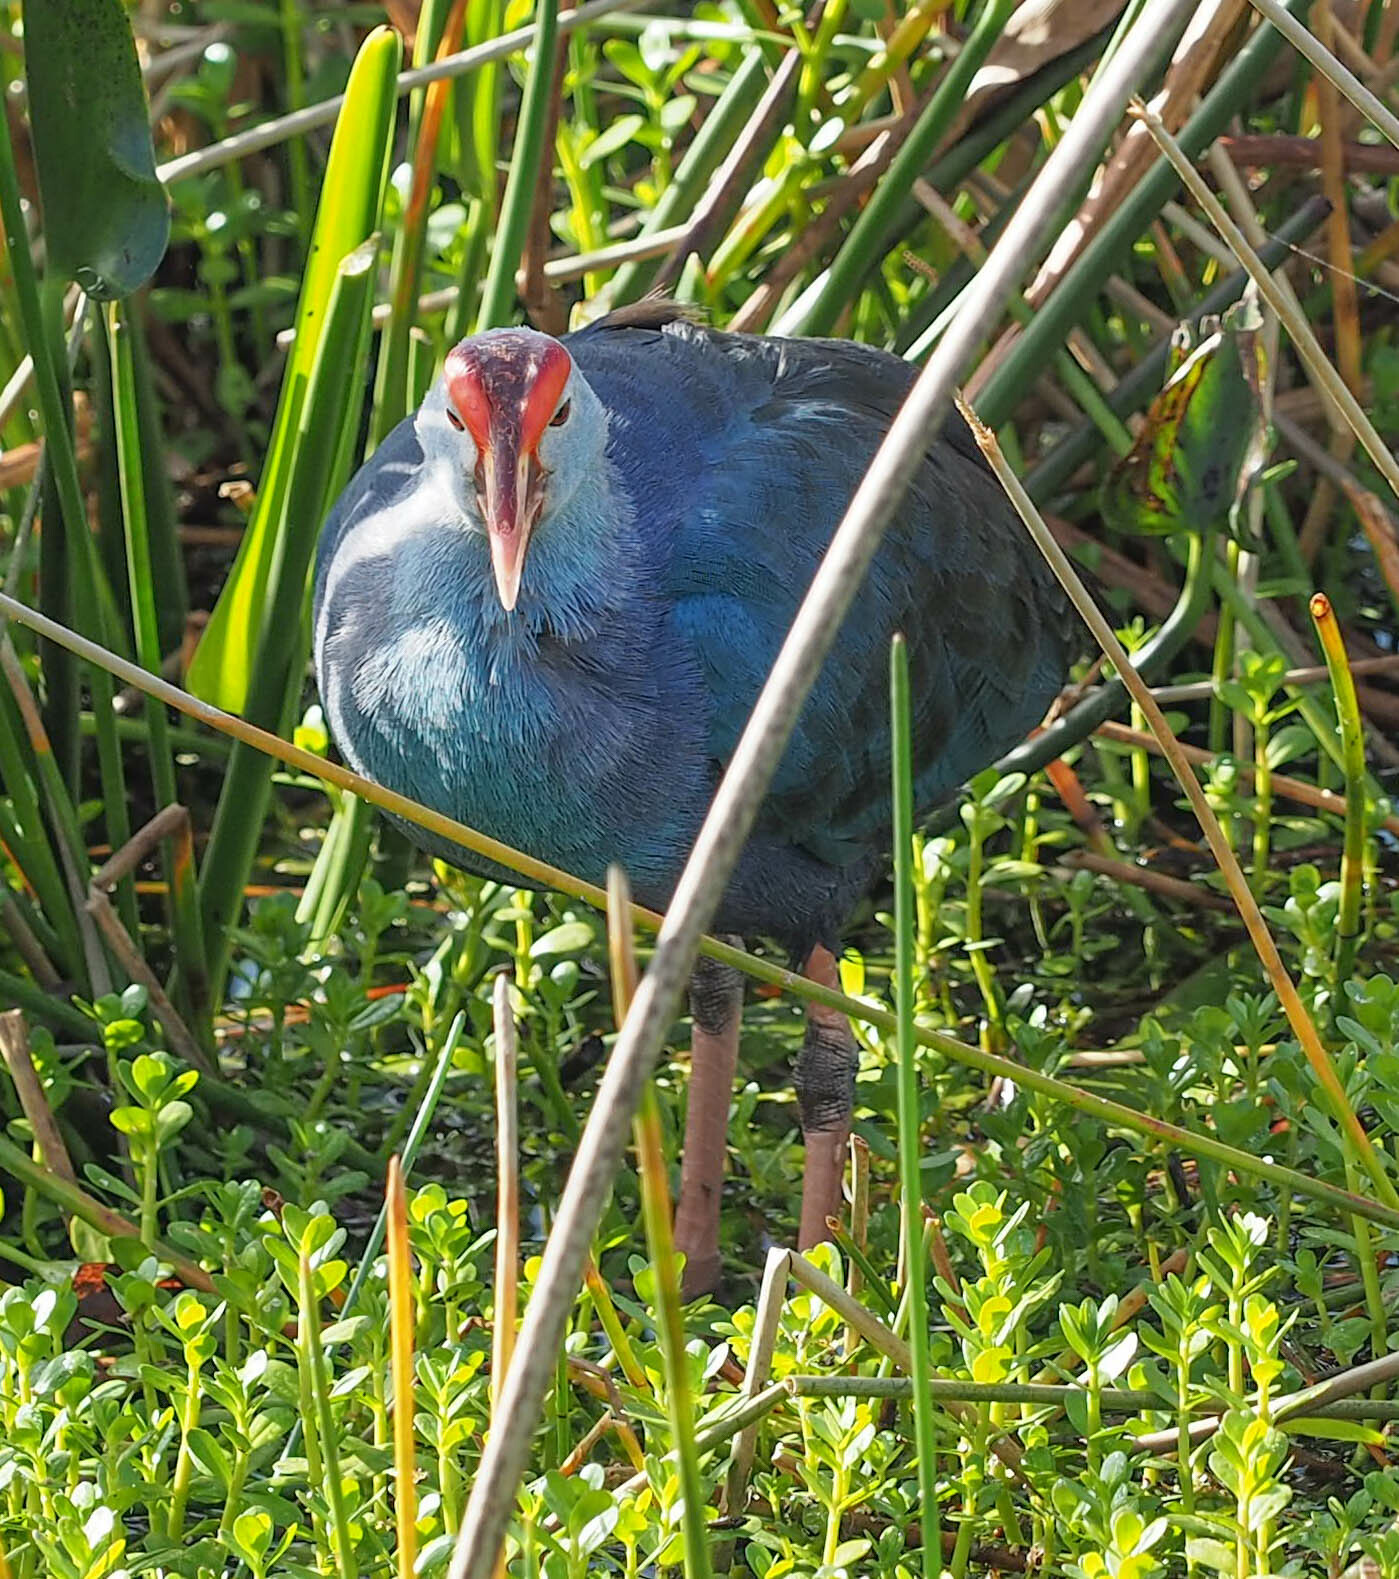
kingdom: Animalia
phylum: Chordata
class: Aves
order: Gruiformes
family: Rallidae
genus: Porphyrio
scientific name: Porphyrio porphyrio
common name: Purple swamphen
